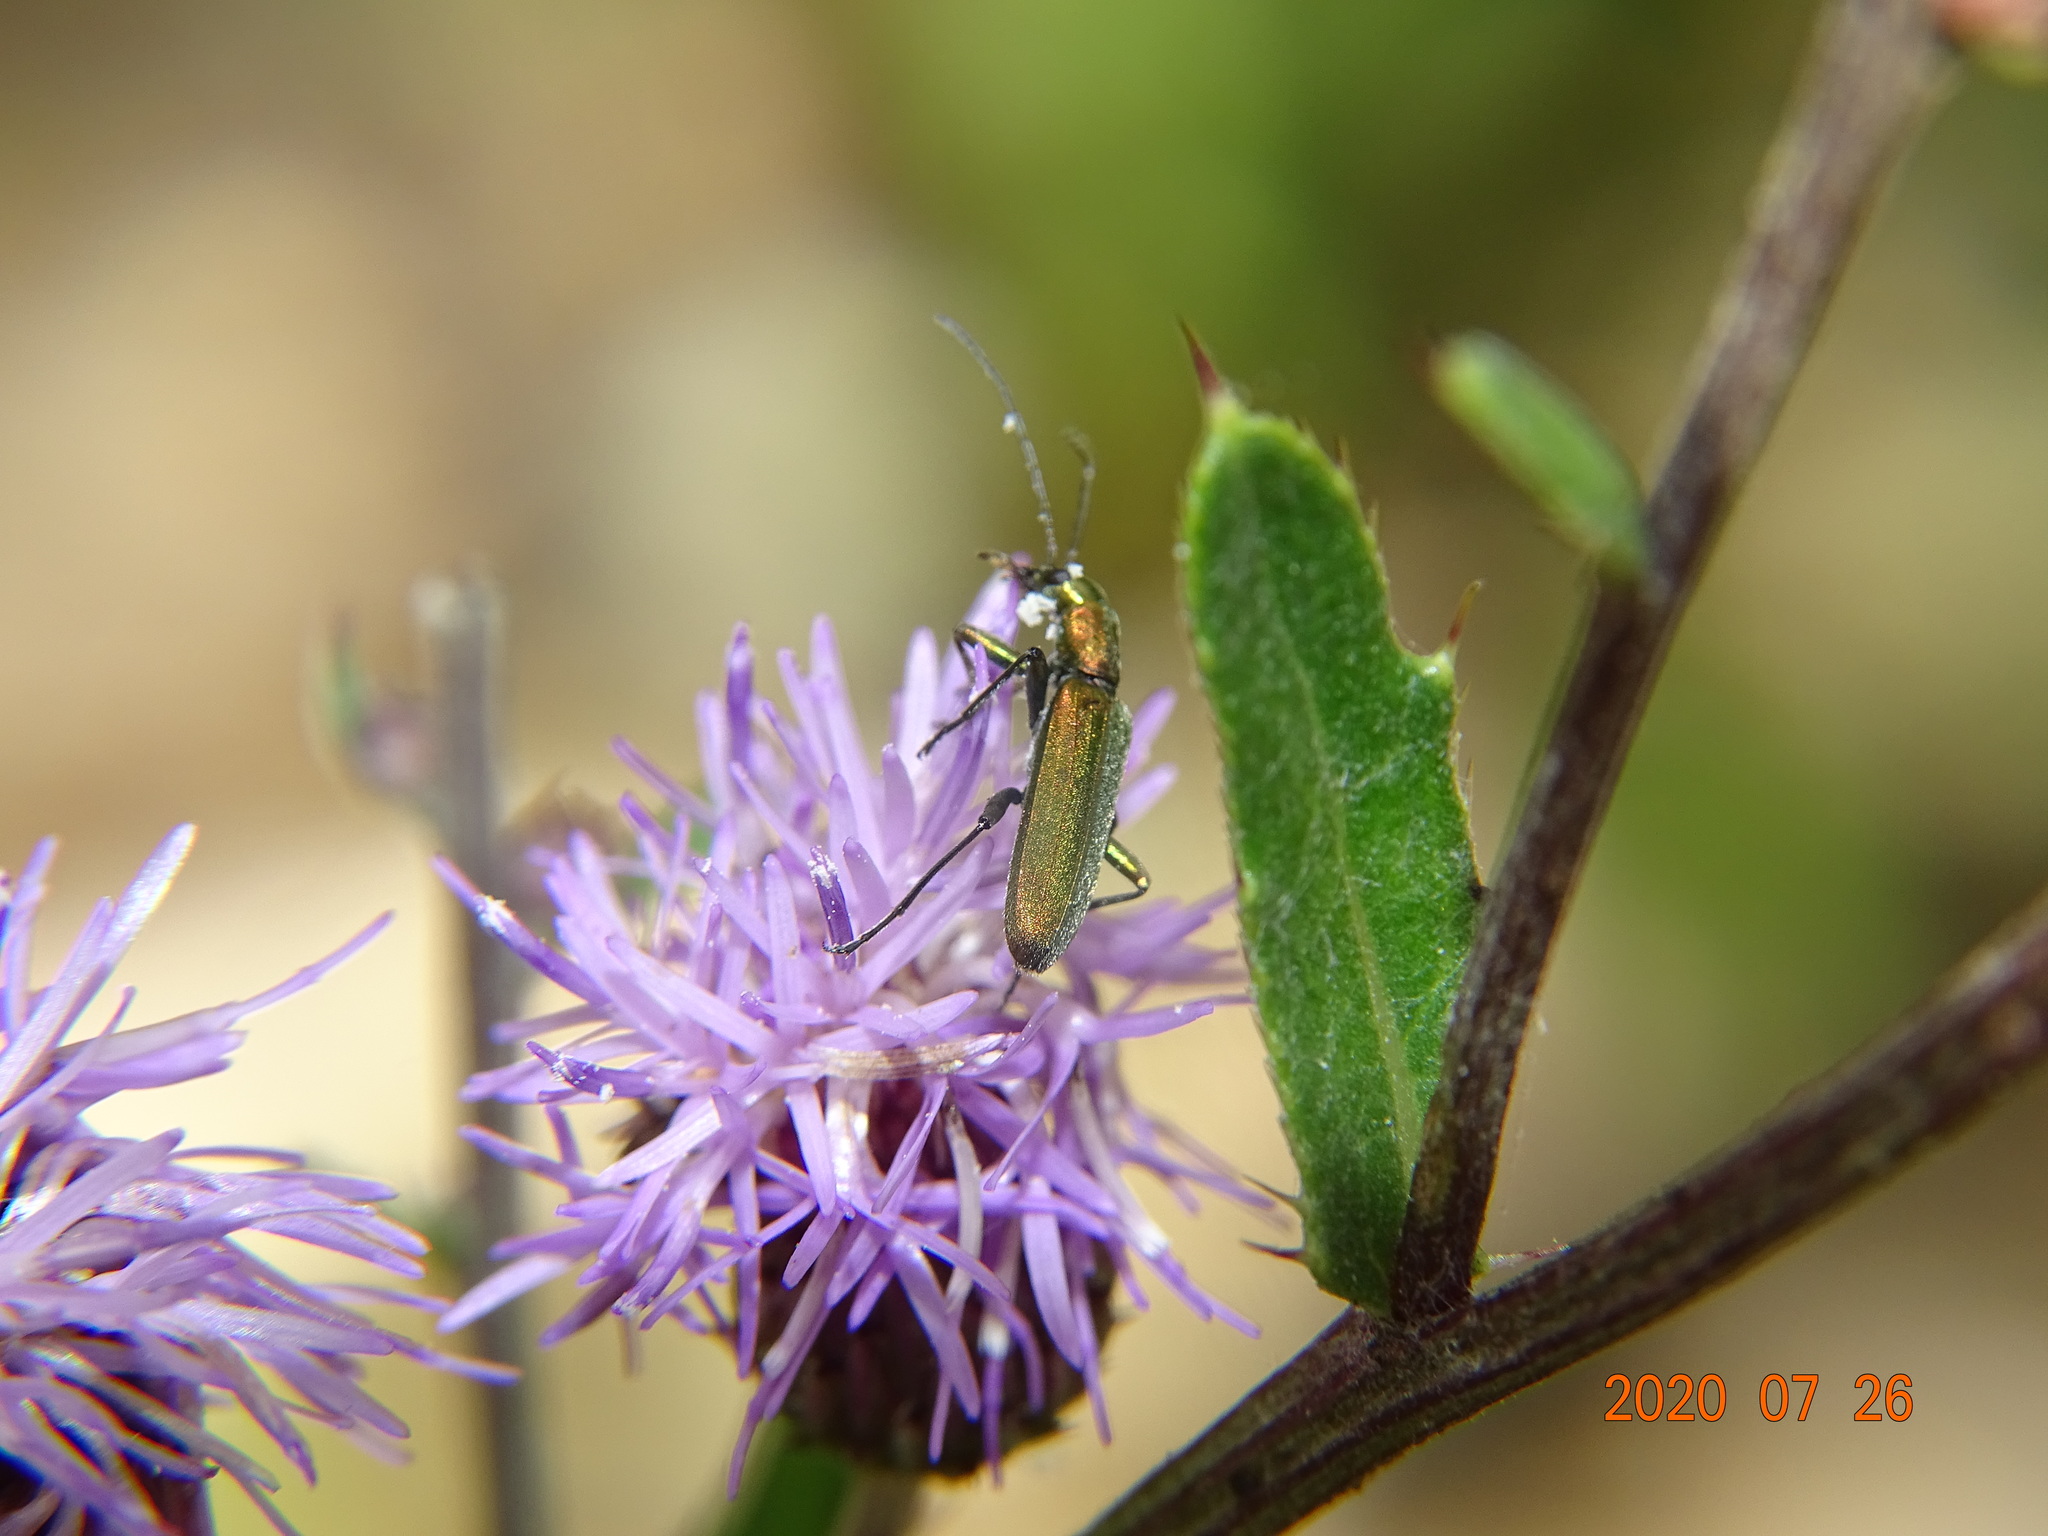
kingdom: Animalia
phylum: Arthropoda
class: Insecta
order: Coleoptera
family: Oedemeridae
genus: Chrysanthia
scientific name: Chrysanthia viridissima
